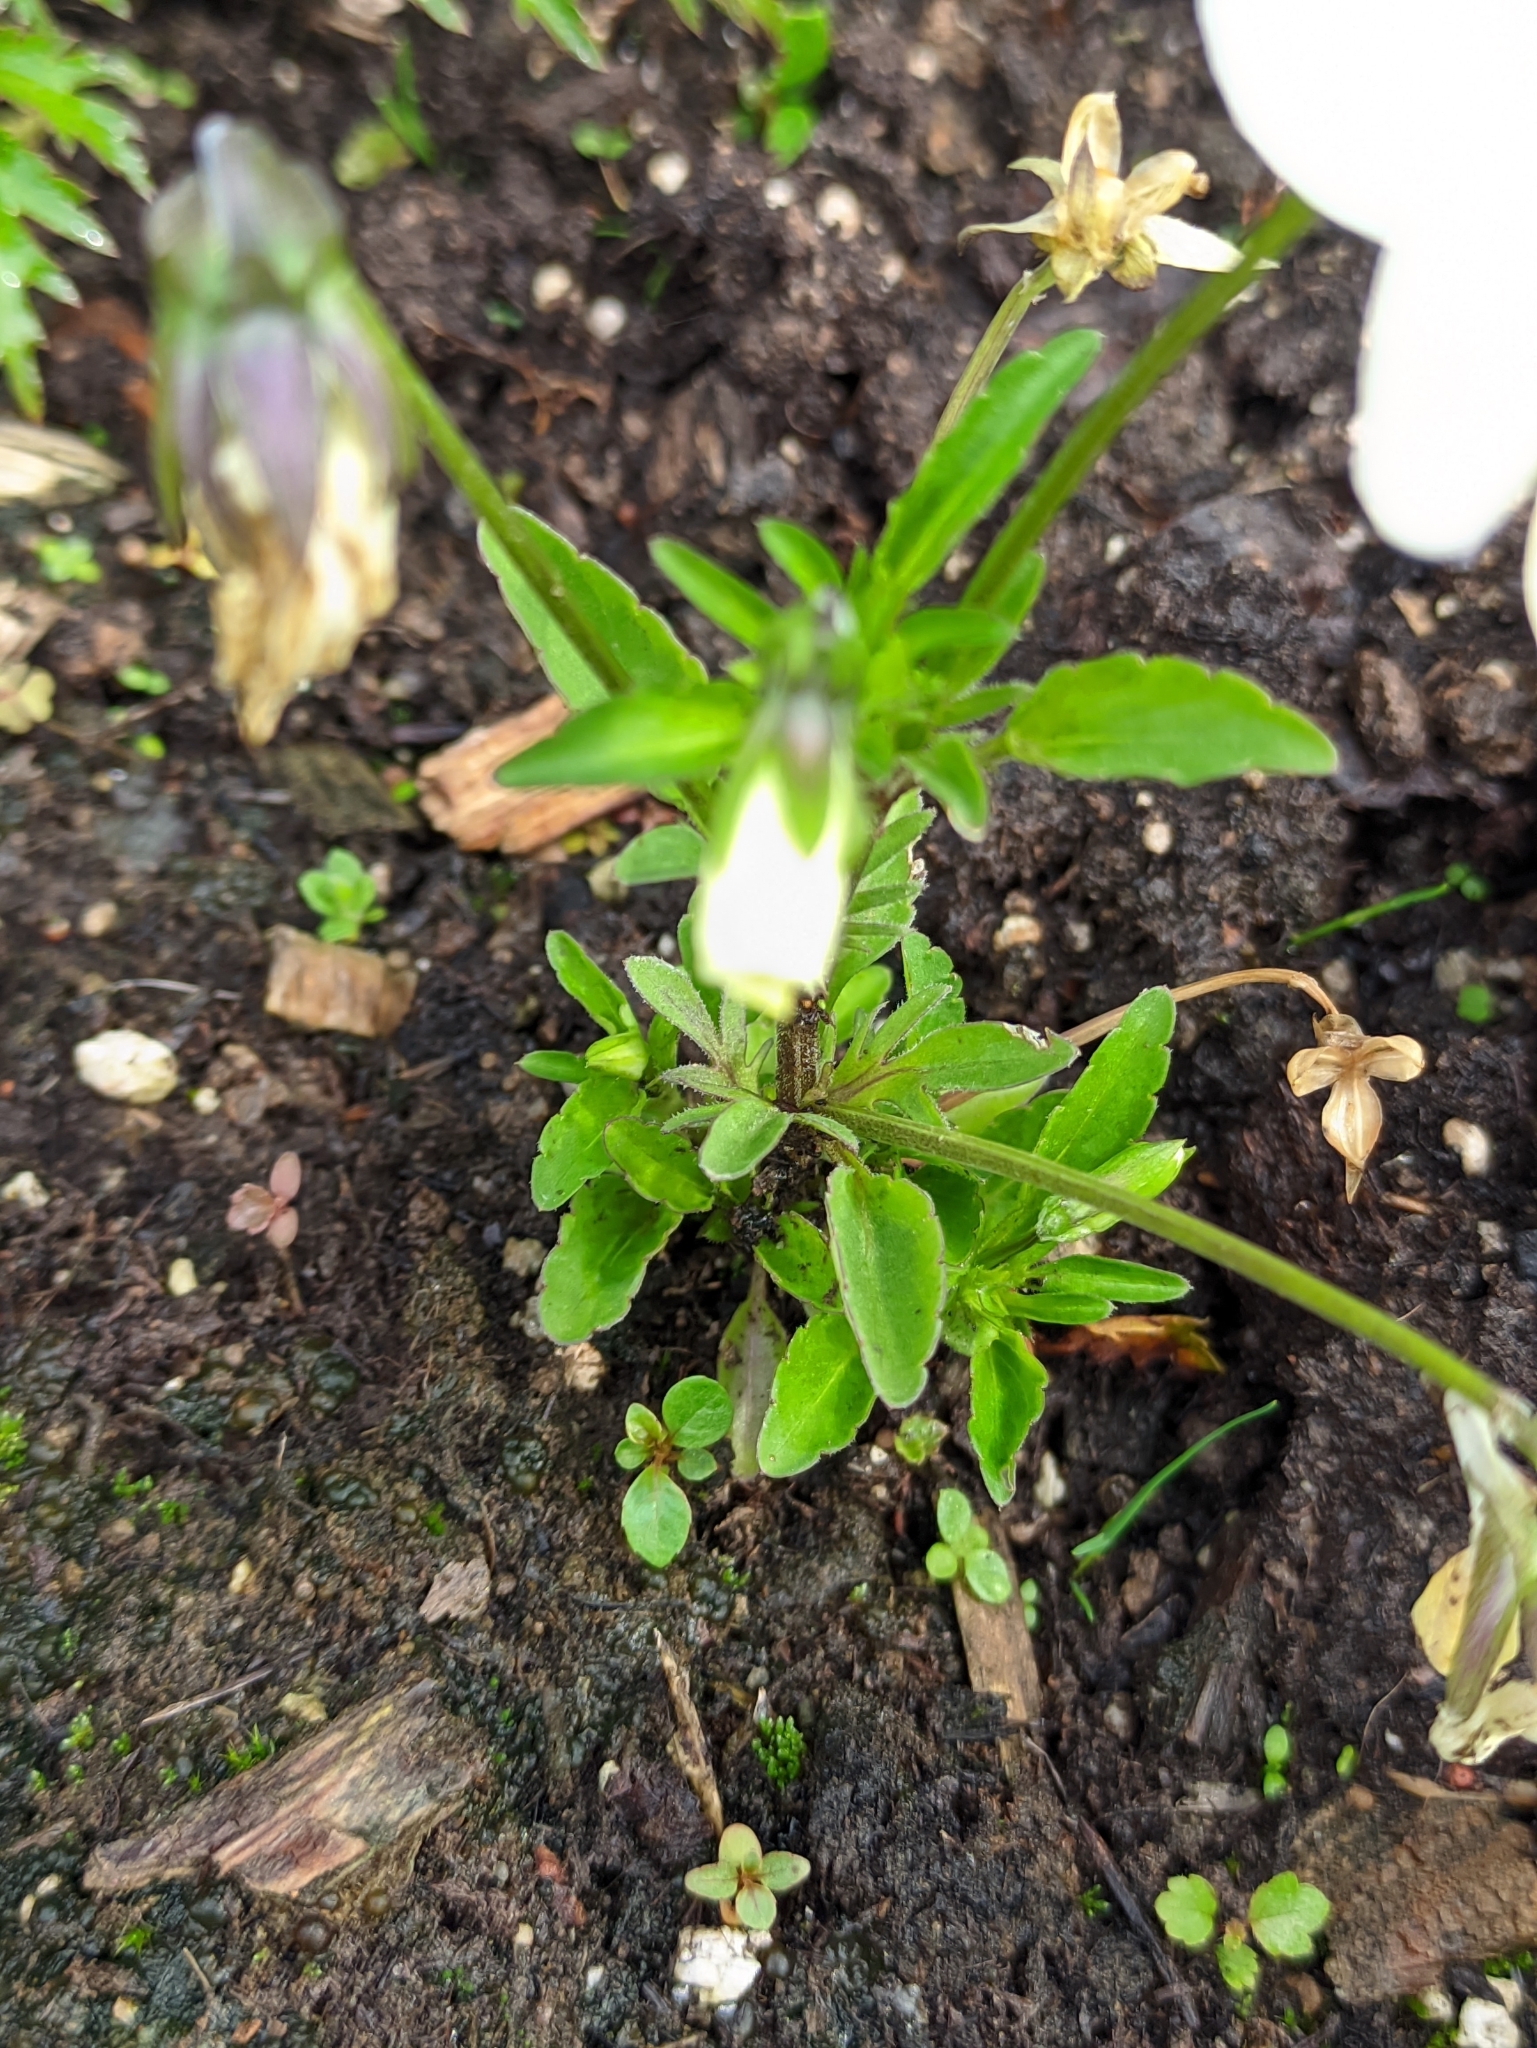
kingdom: Plantae
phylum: Tracheophyta
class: Magnoliopsida
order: Malpighiales
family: Violaceae
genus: Viola
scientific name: Viola arvensis
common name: Field pansy
